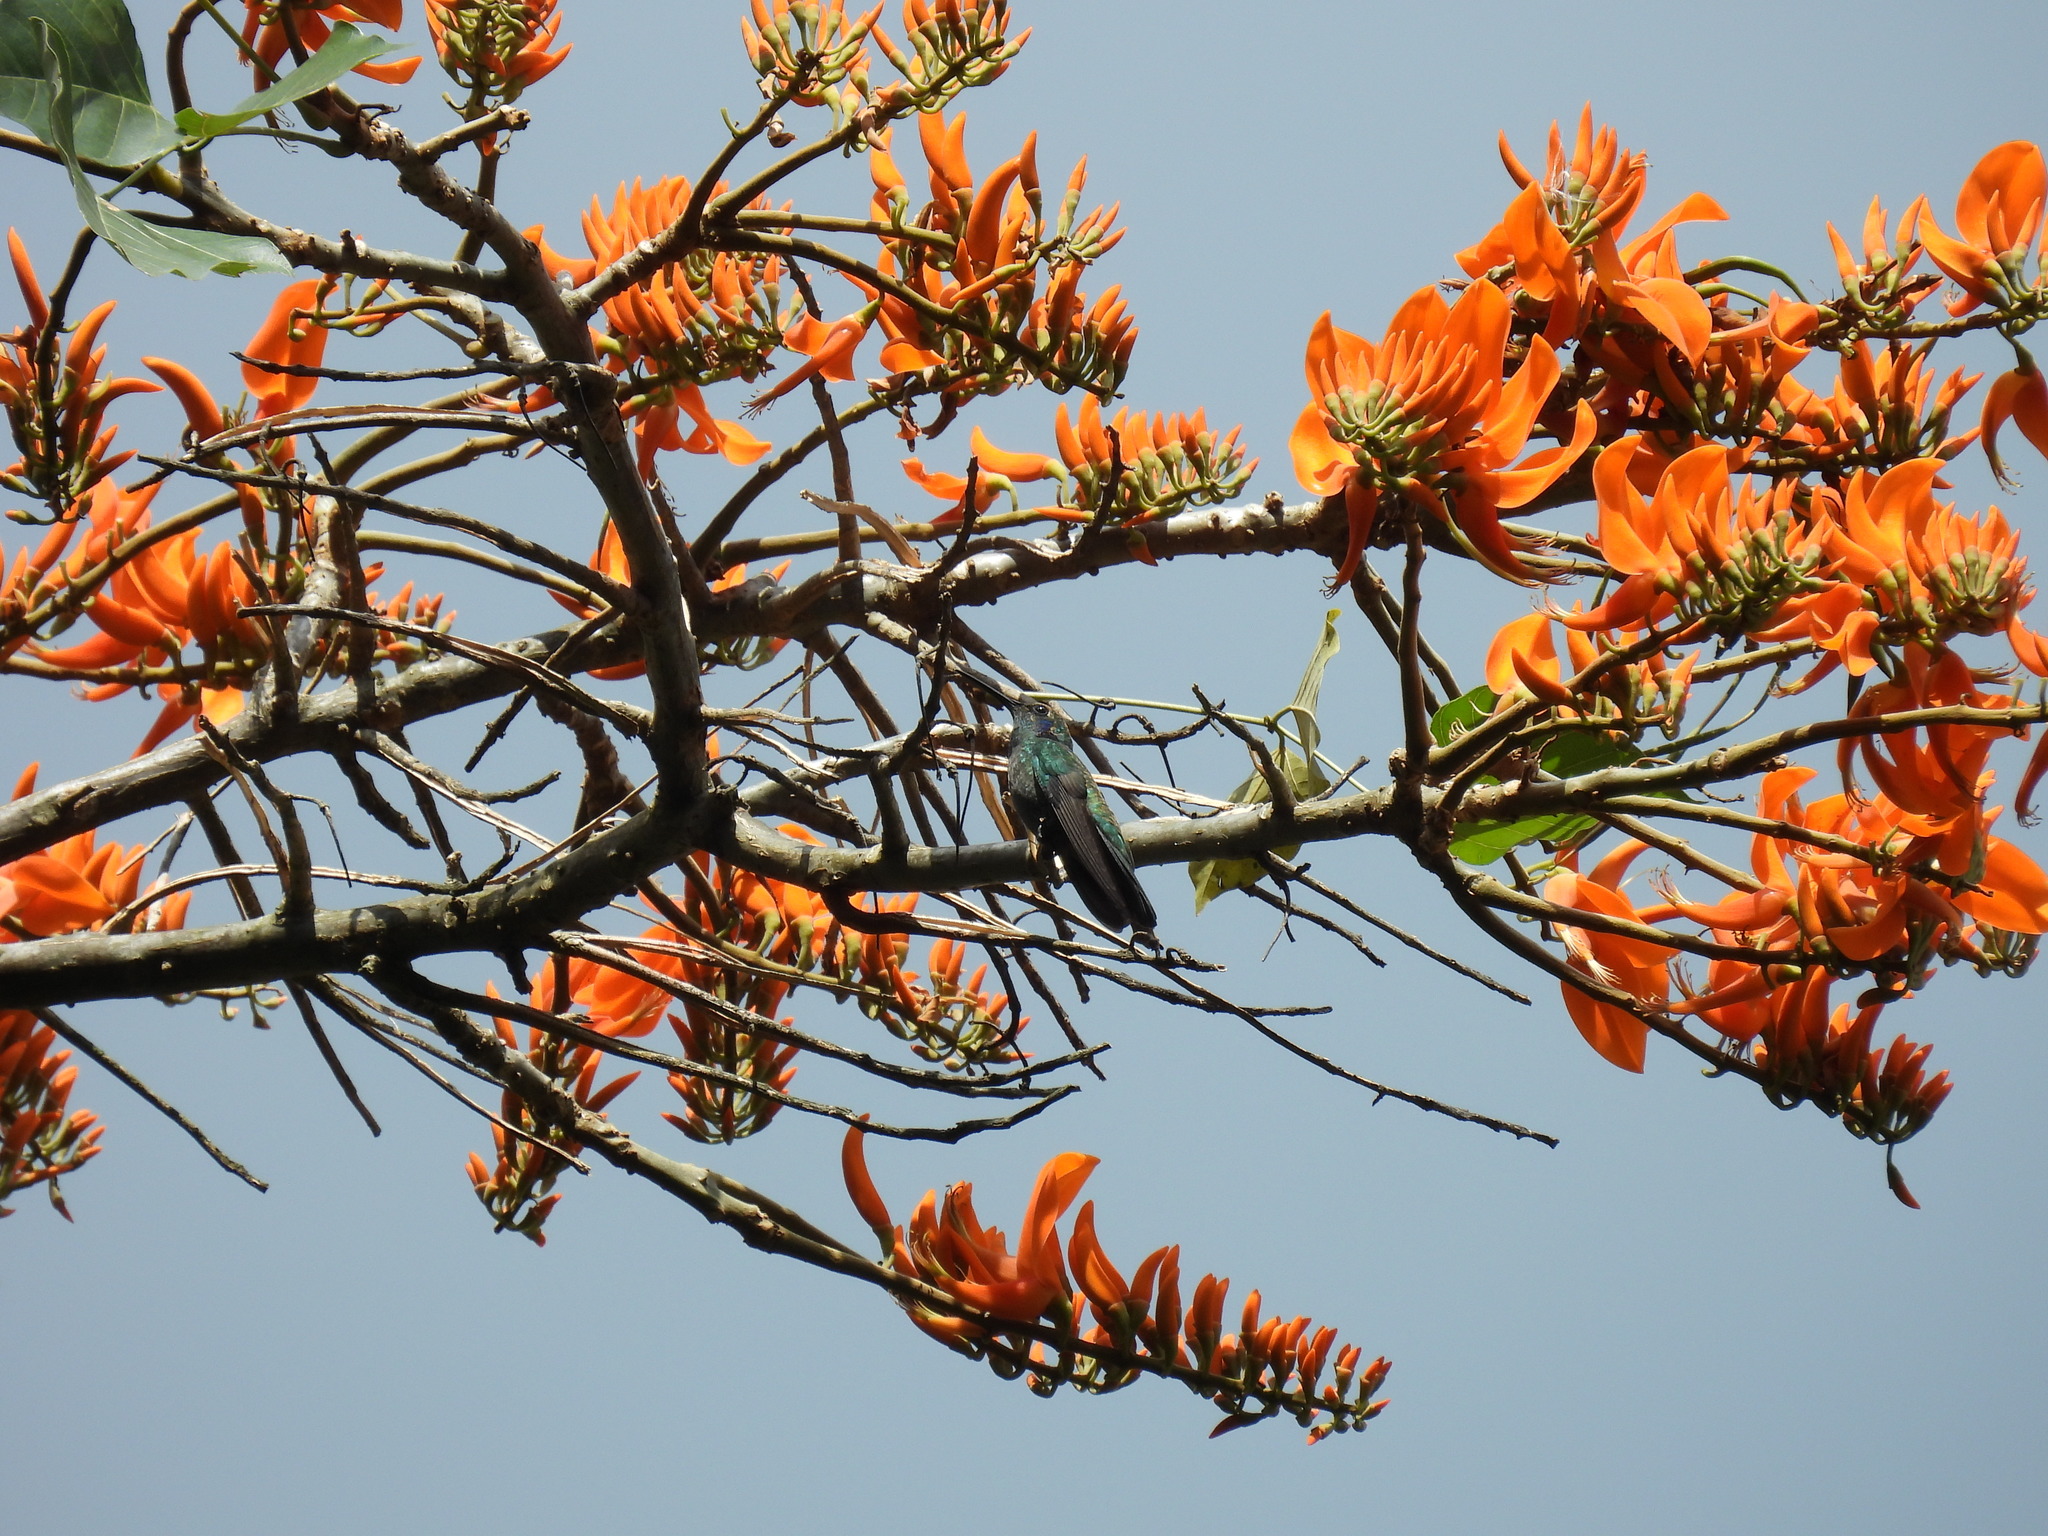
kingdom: Plantae
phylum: Tracheophyta
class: Magnoliopsida
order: Fabales
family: Fabaceae
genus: Erythrina
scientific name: Erythrina poeppigiana
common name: Coral tree
